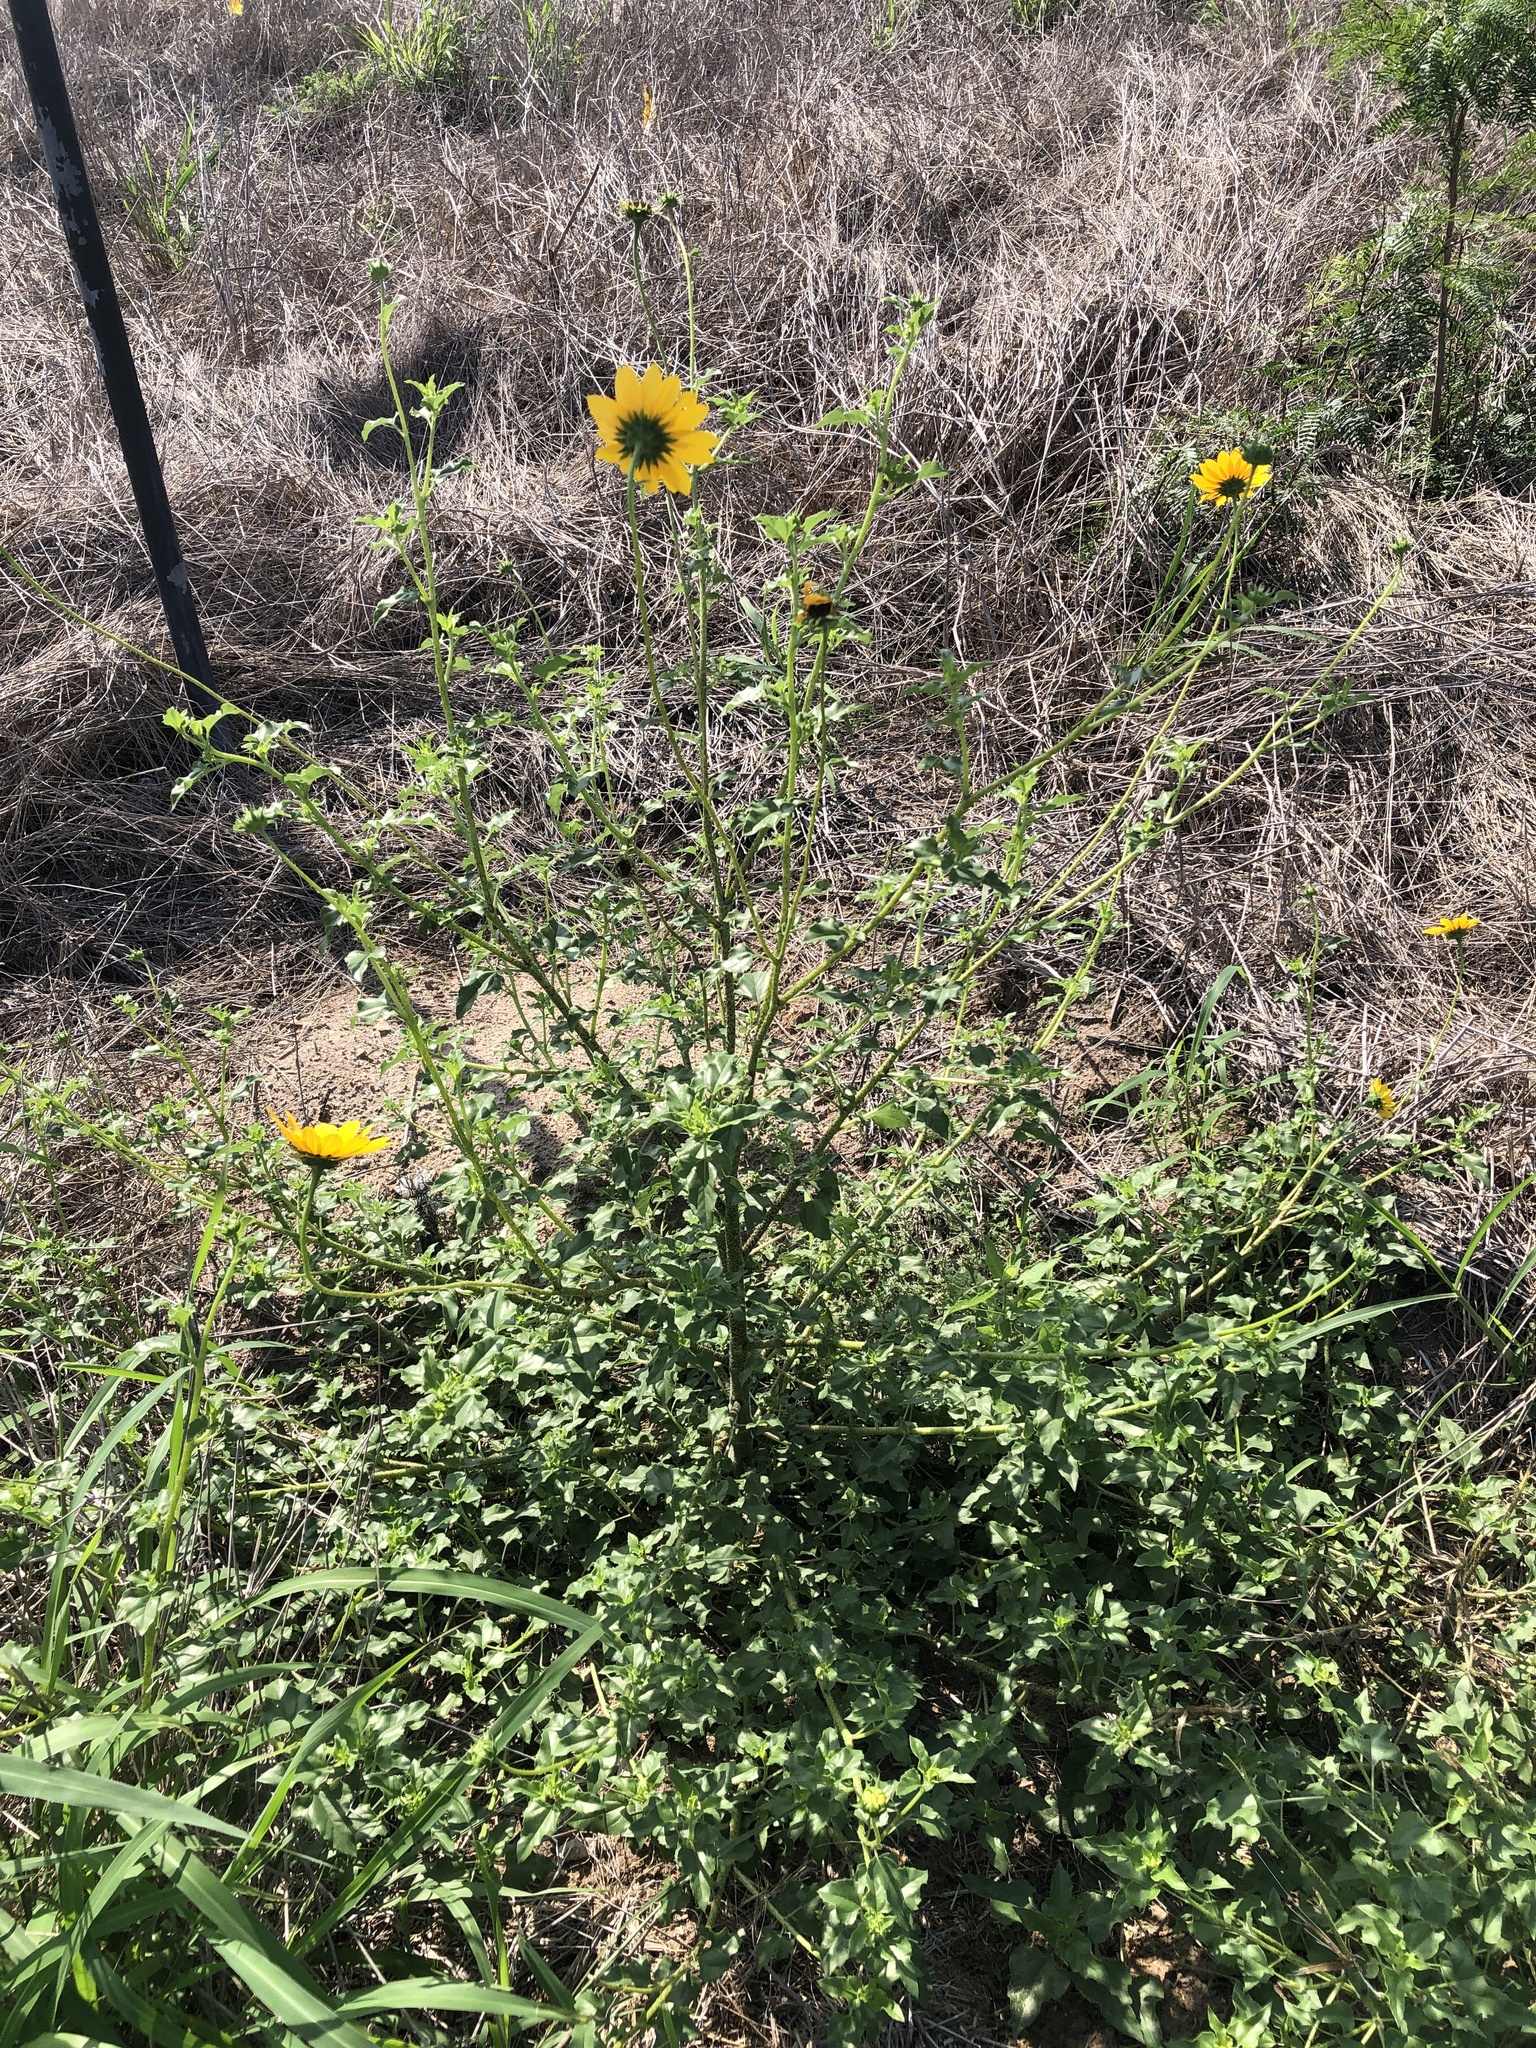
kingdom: Plantae
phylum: Tracheophyta
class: Magnoliopsida
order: Asterales
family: Asteraceae
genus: Helianthus
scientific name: Helianthus praecox
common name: Texas sunflower
